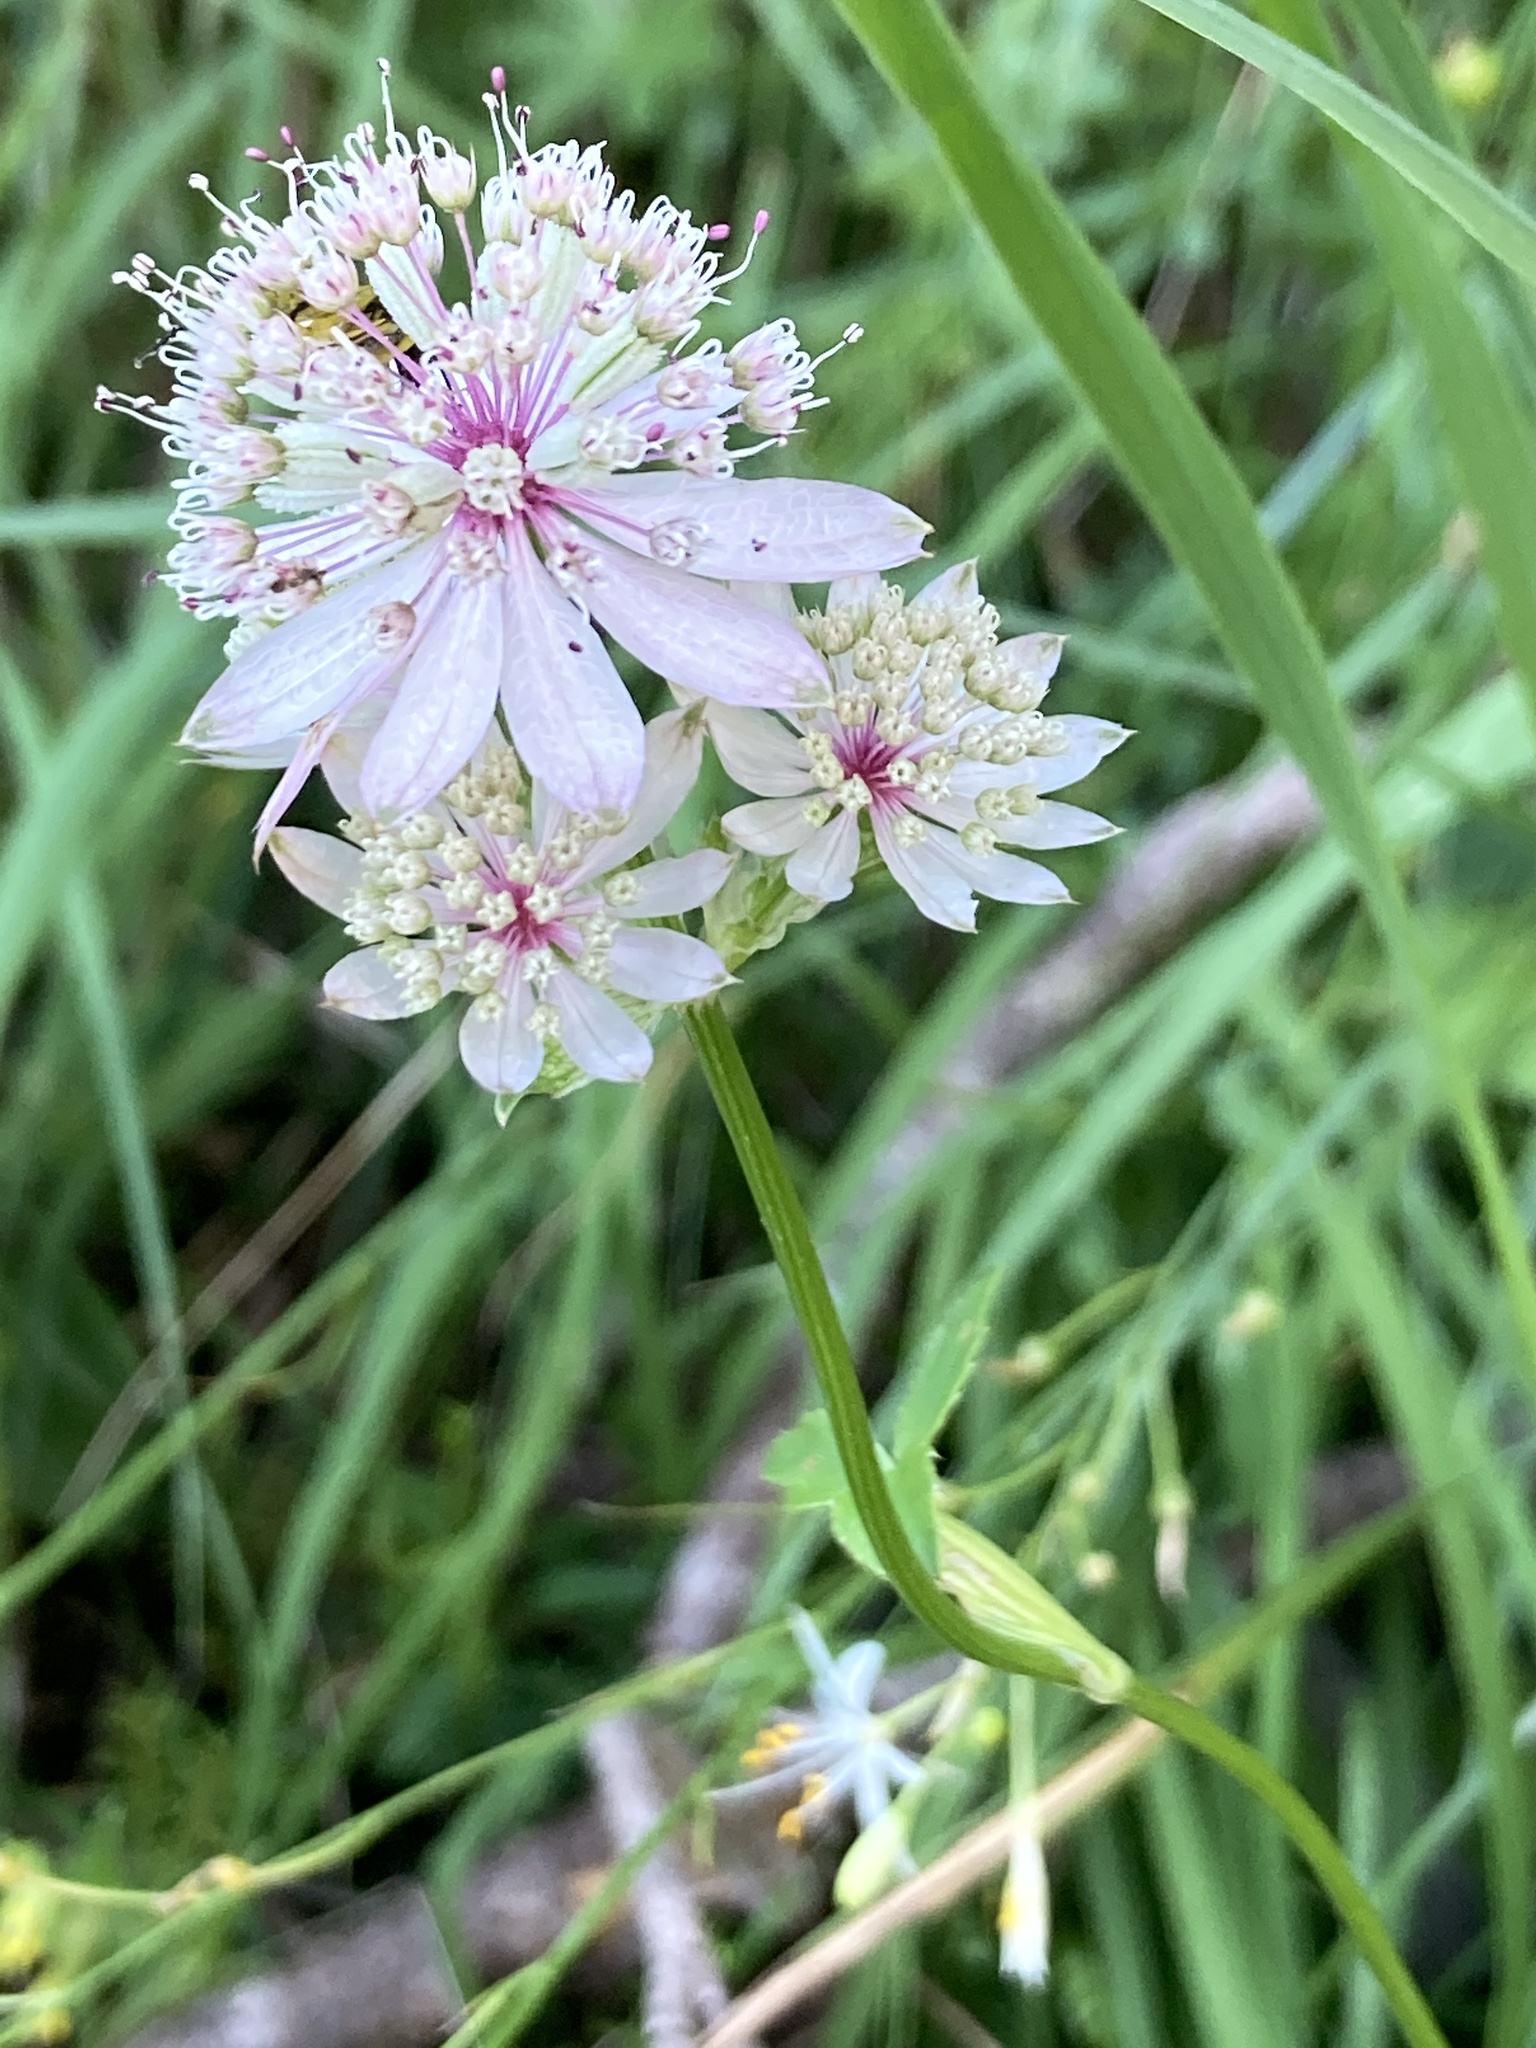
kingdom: Plantae
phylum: Tracheophyta
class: Magnoliopsida
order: Apiales
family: Apiaceae
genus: Astrantia
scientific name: Astrantia major
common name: Greater masterwort
